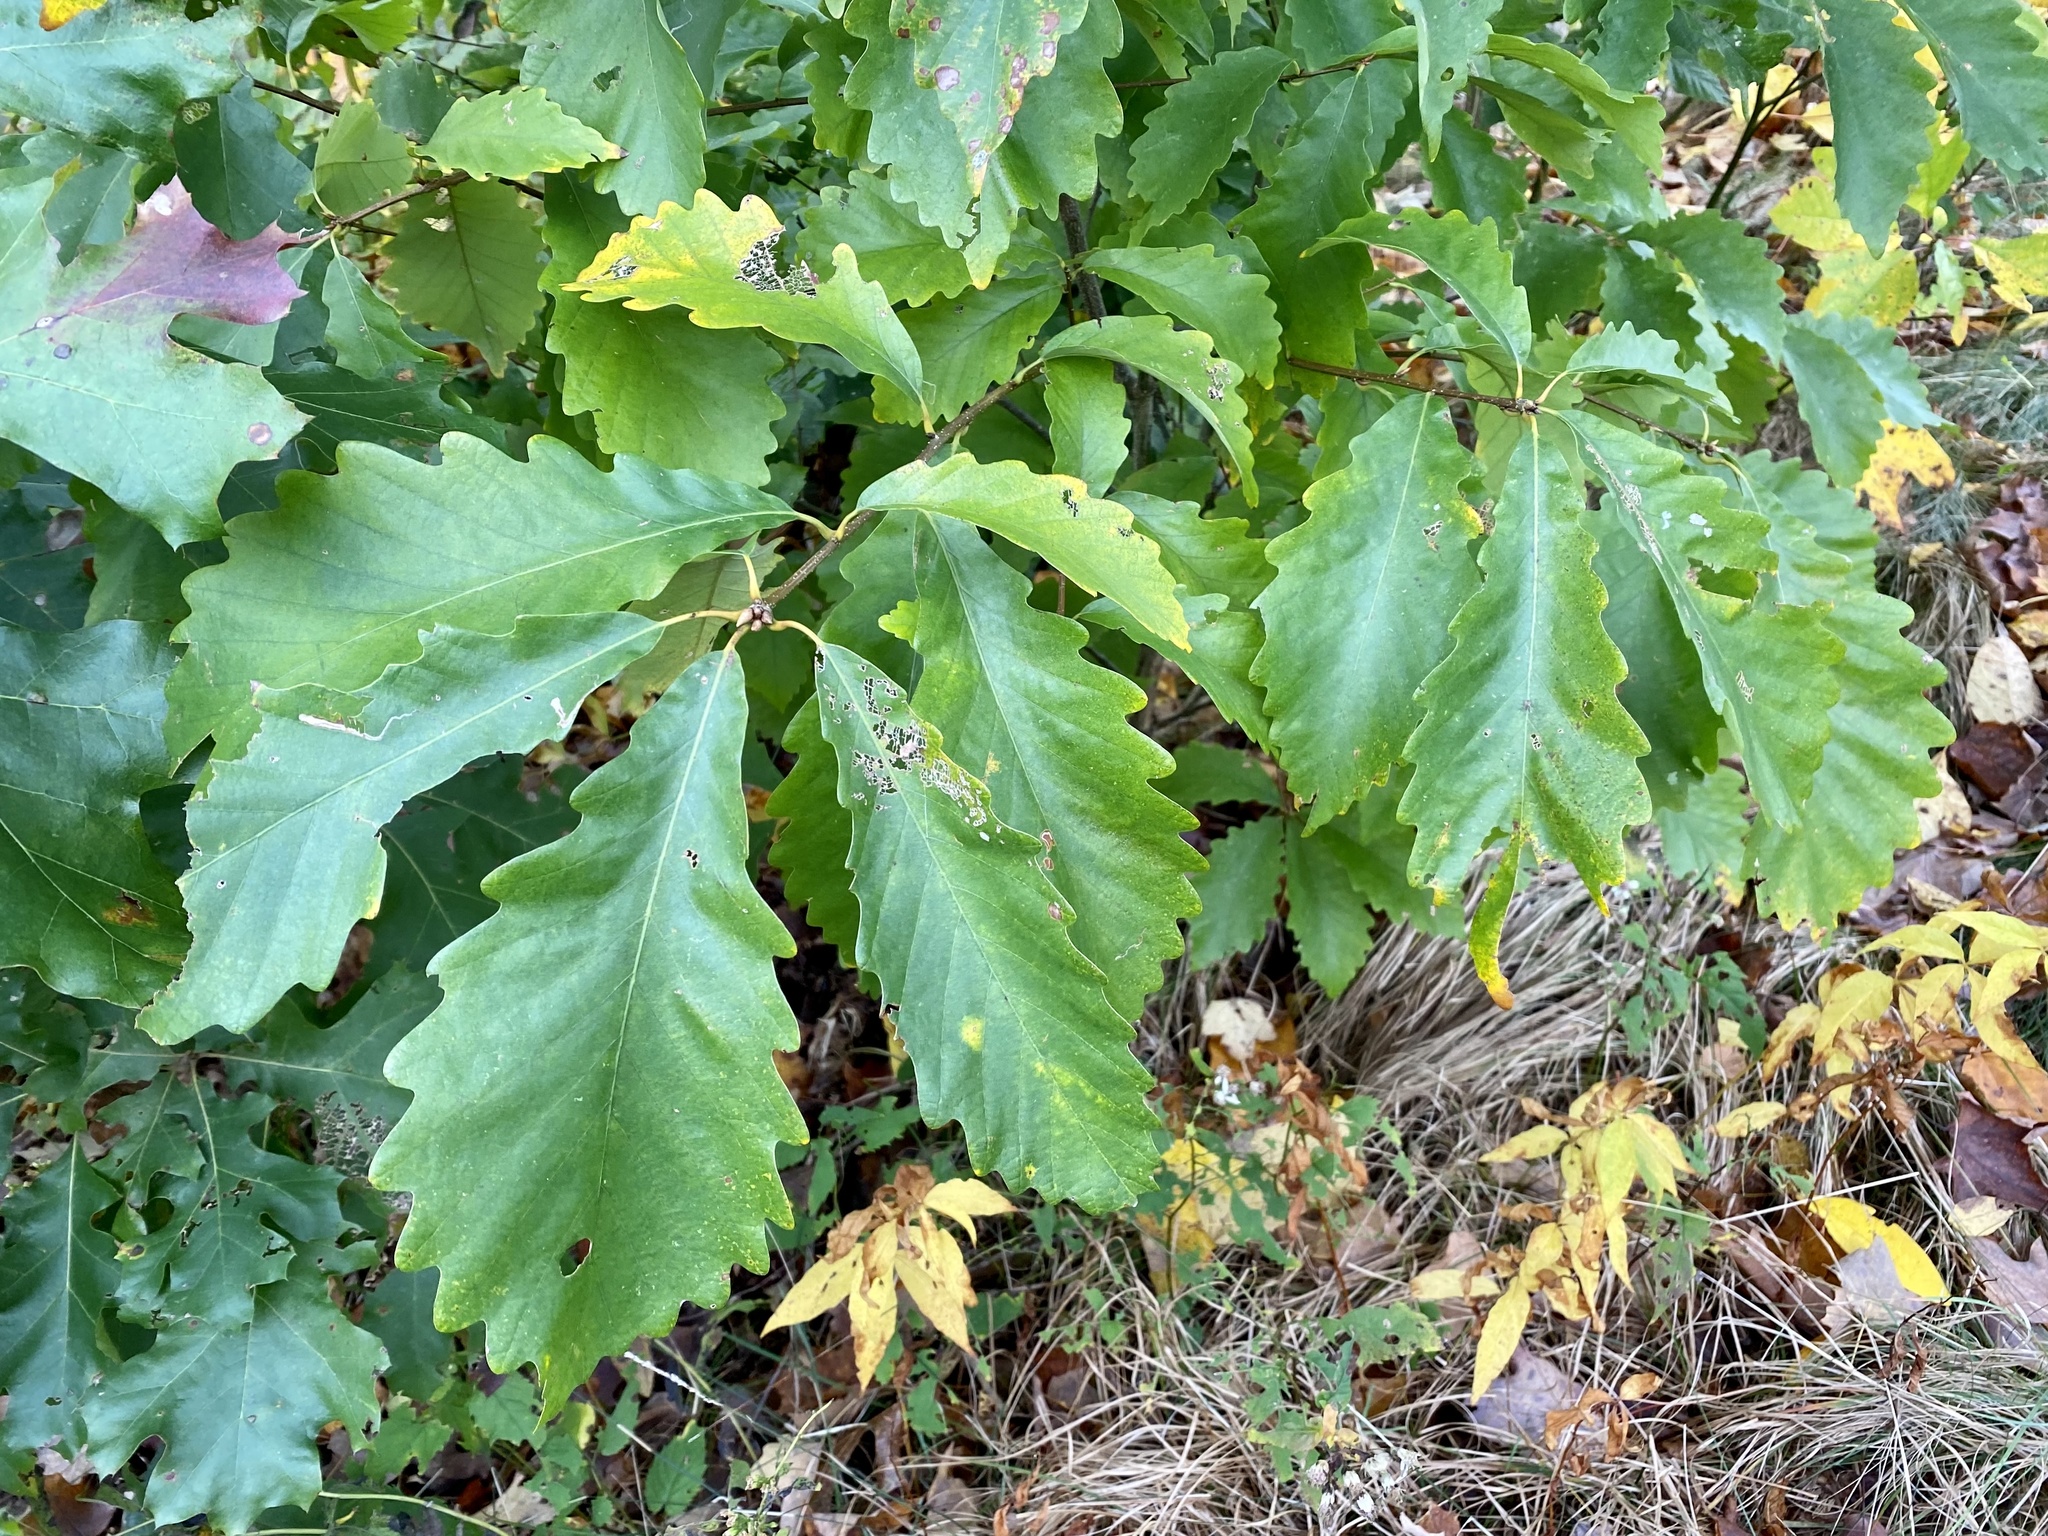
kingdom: Plantae
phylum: Tracheophyta
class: Magnoliopsida
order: Fagales
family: Fagaceae
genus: Quercus
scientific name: Quercus montana
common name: Chestnut oak
